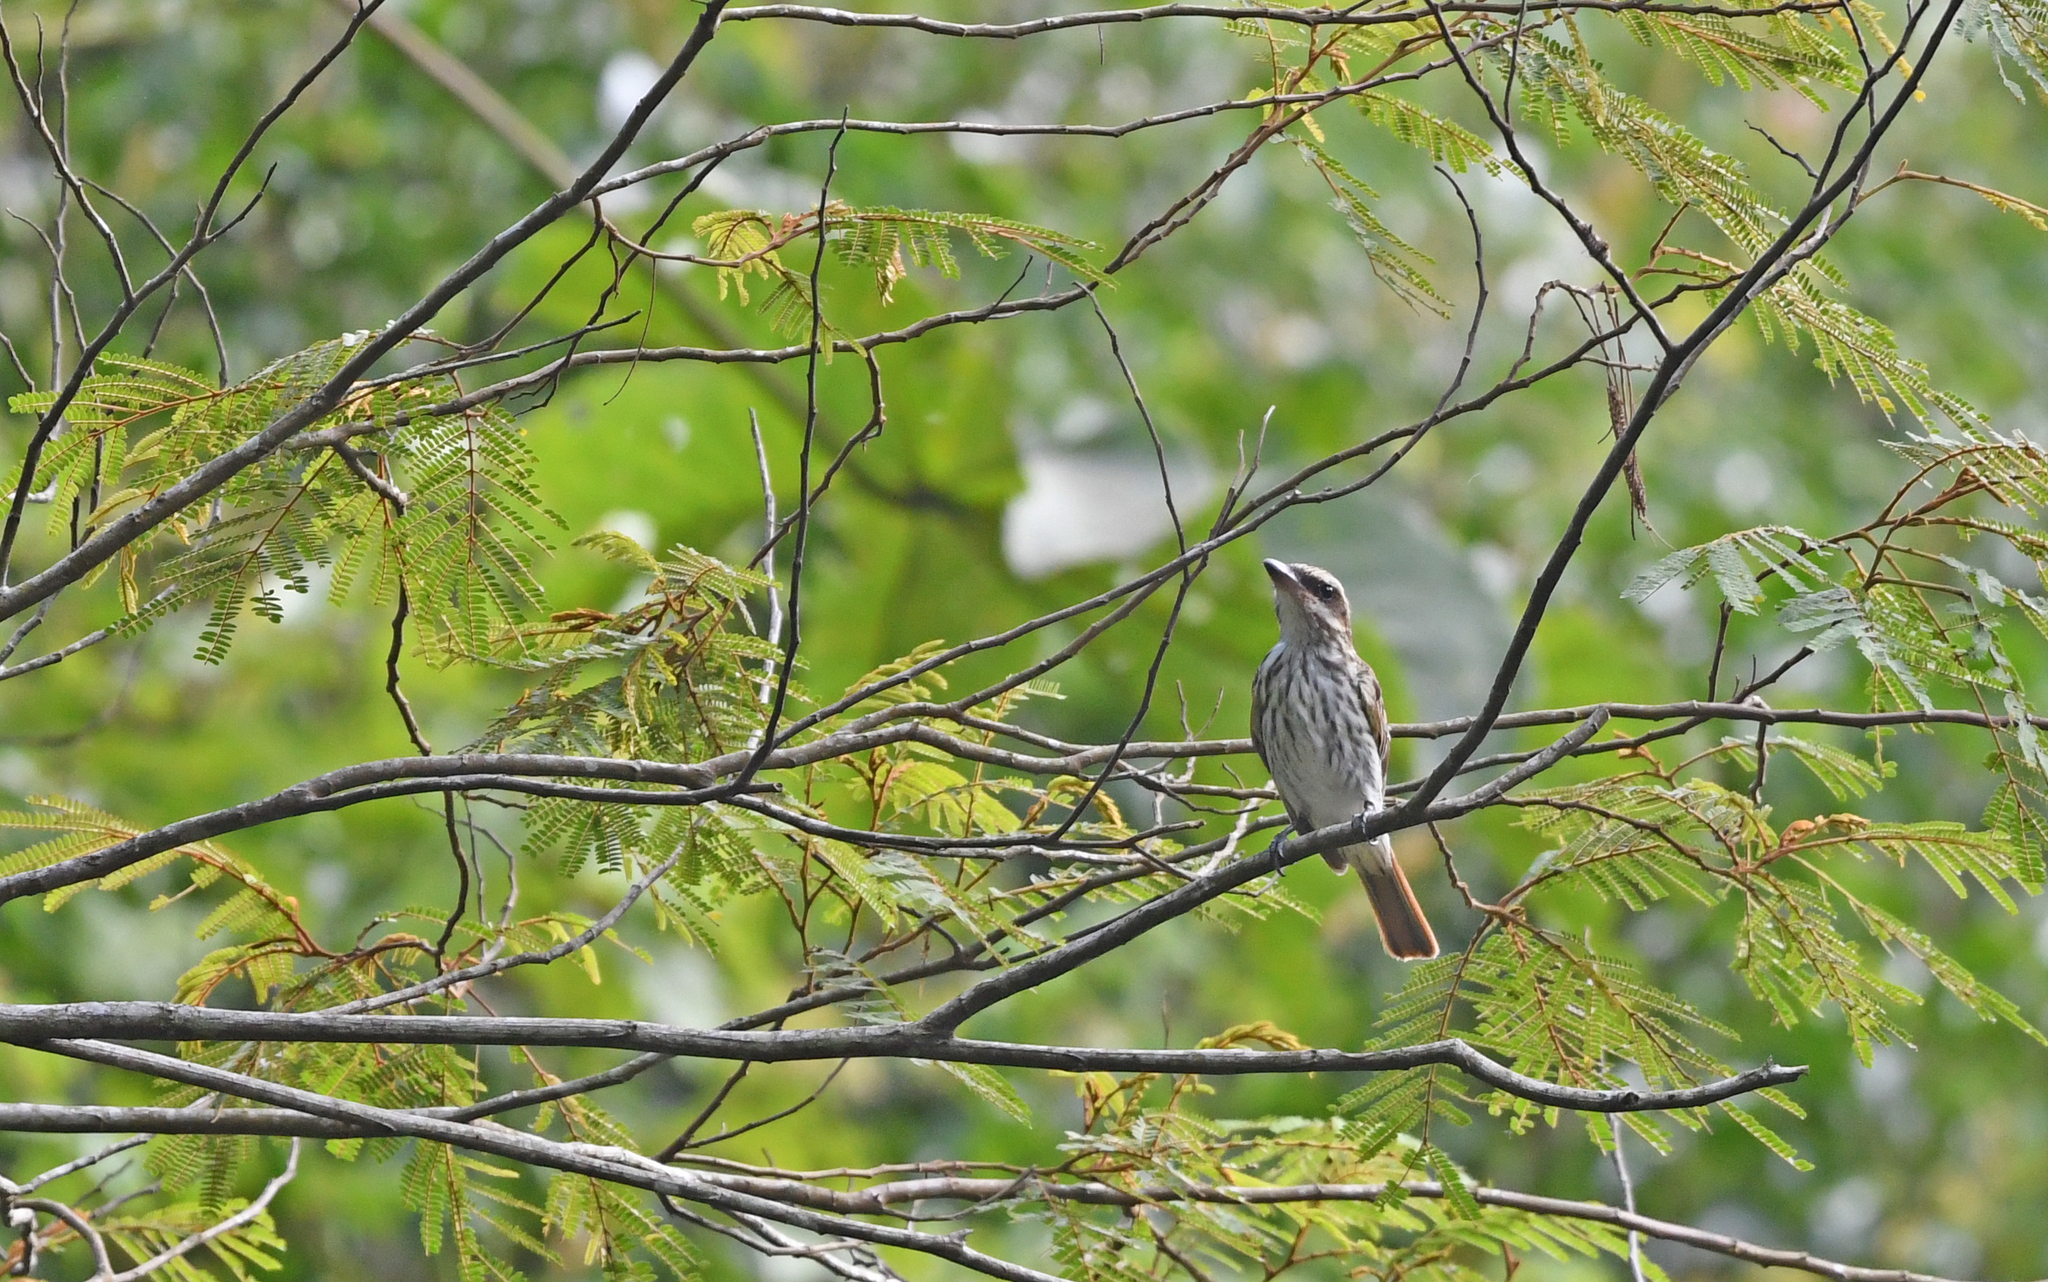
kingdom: Animalia
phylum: Chordata
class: Aves
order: Passeriformes
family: Tyrannidae
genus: Myiodynastes
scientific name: Myiodynastes maculatus
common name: Streaked flycatcher
